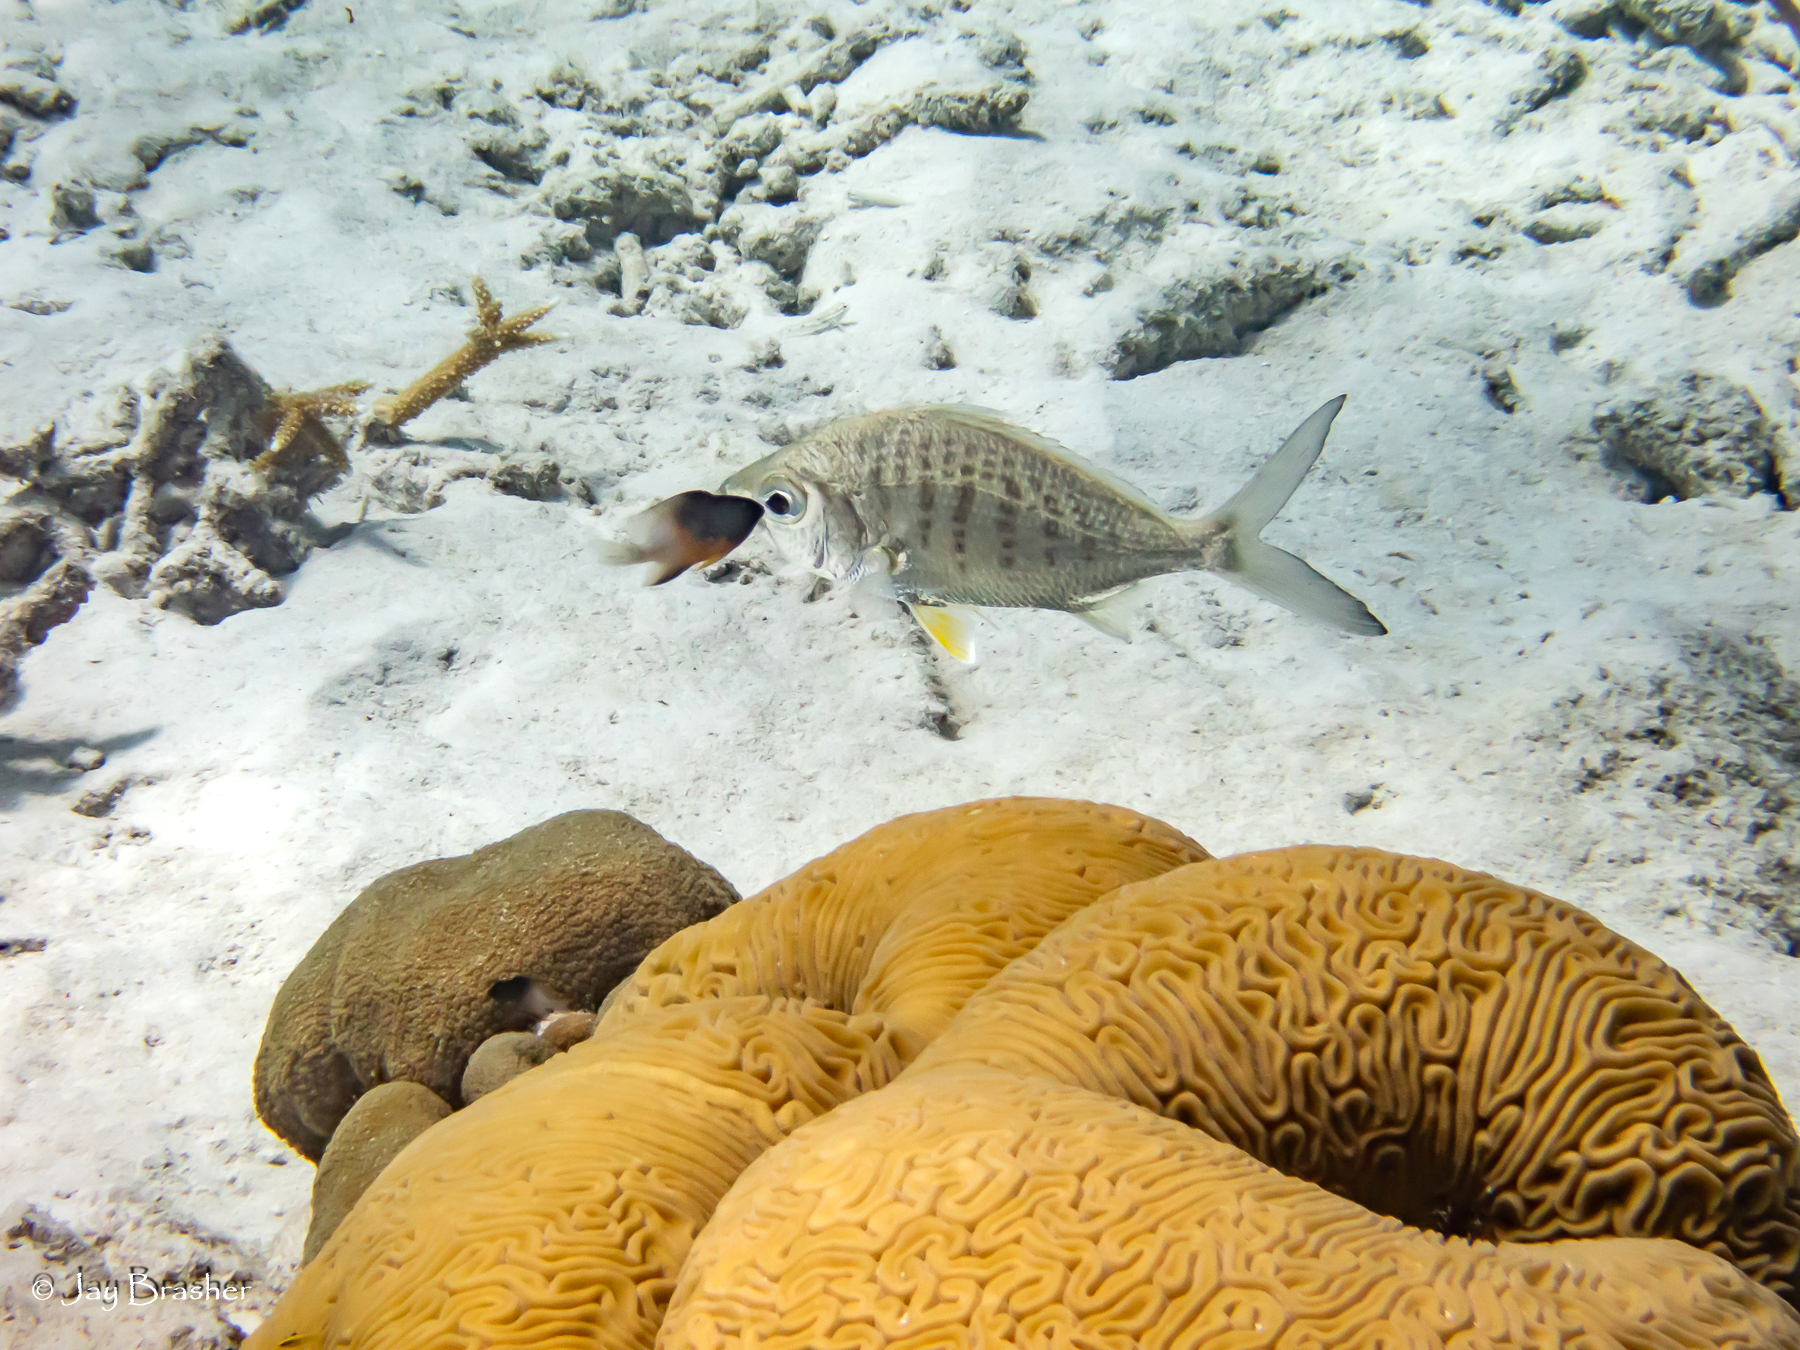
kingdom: Animalia
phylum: Chordata
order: Perciformes
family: Pomacentridae
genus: Stegastes
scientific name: Stegastes partitus
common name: Bicolor damselfish
